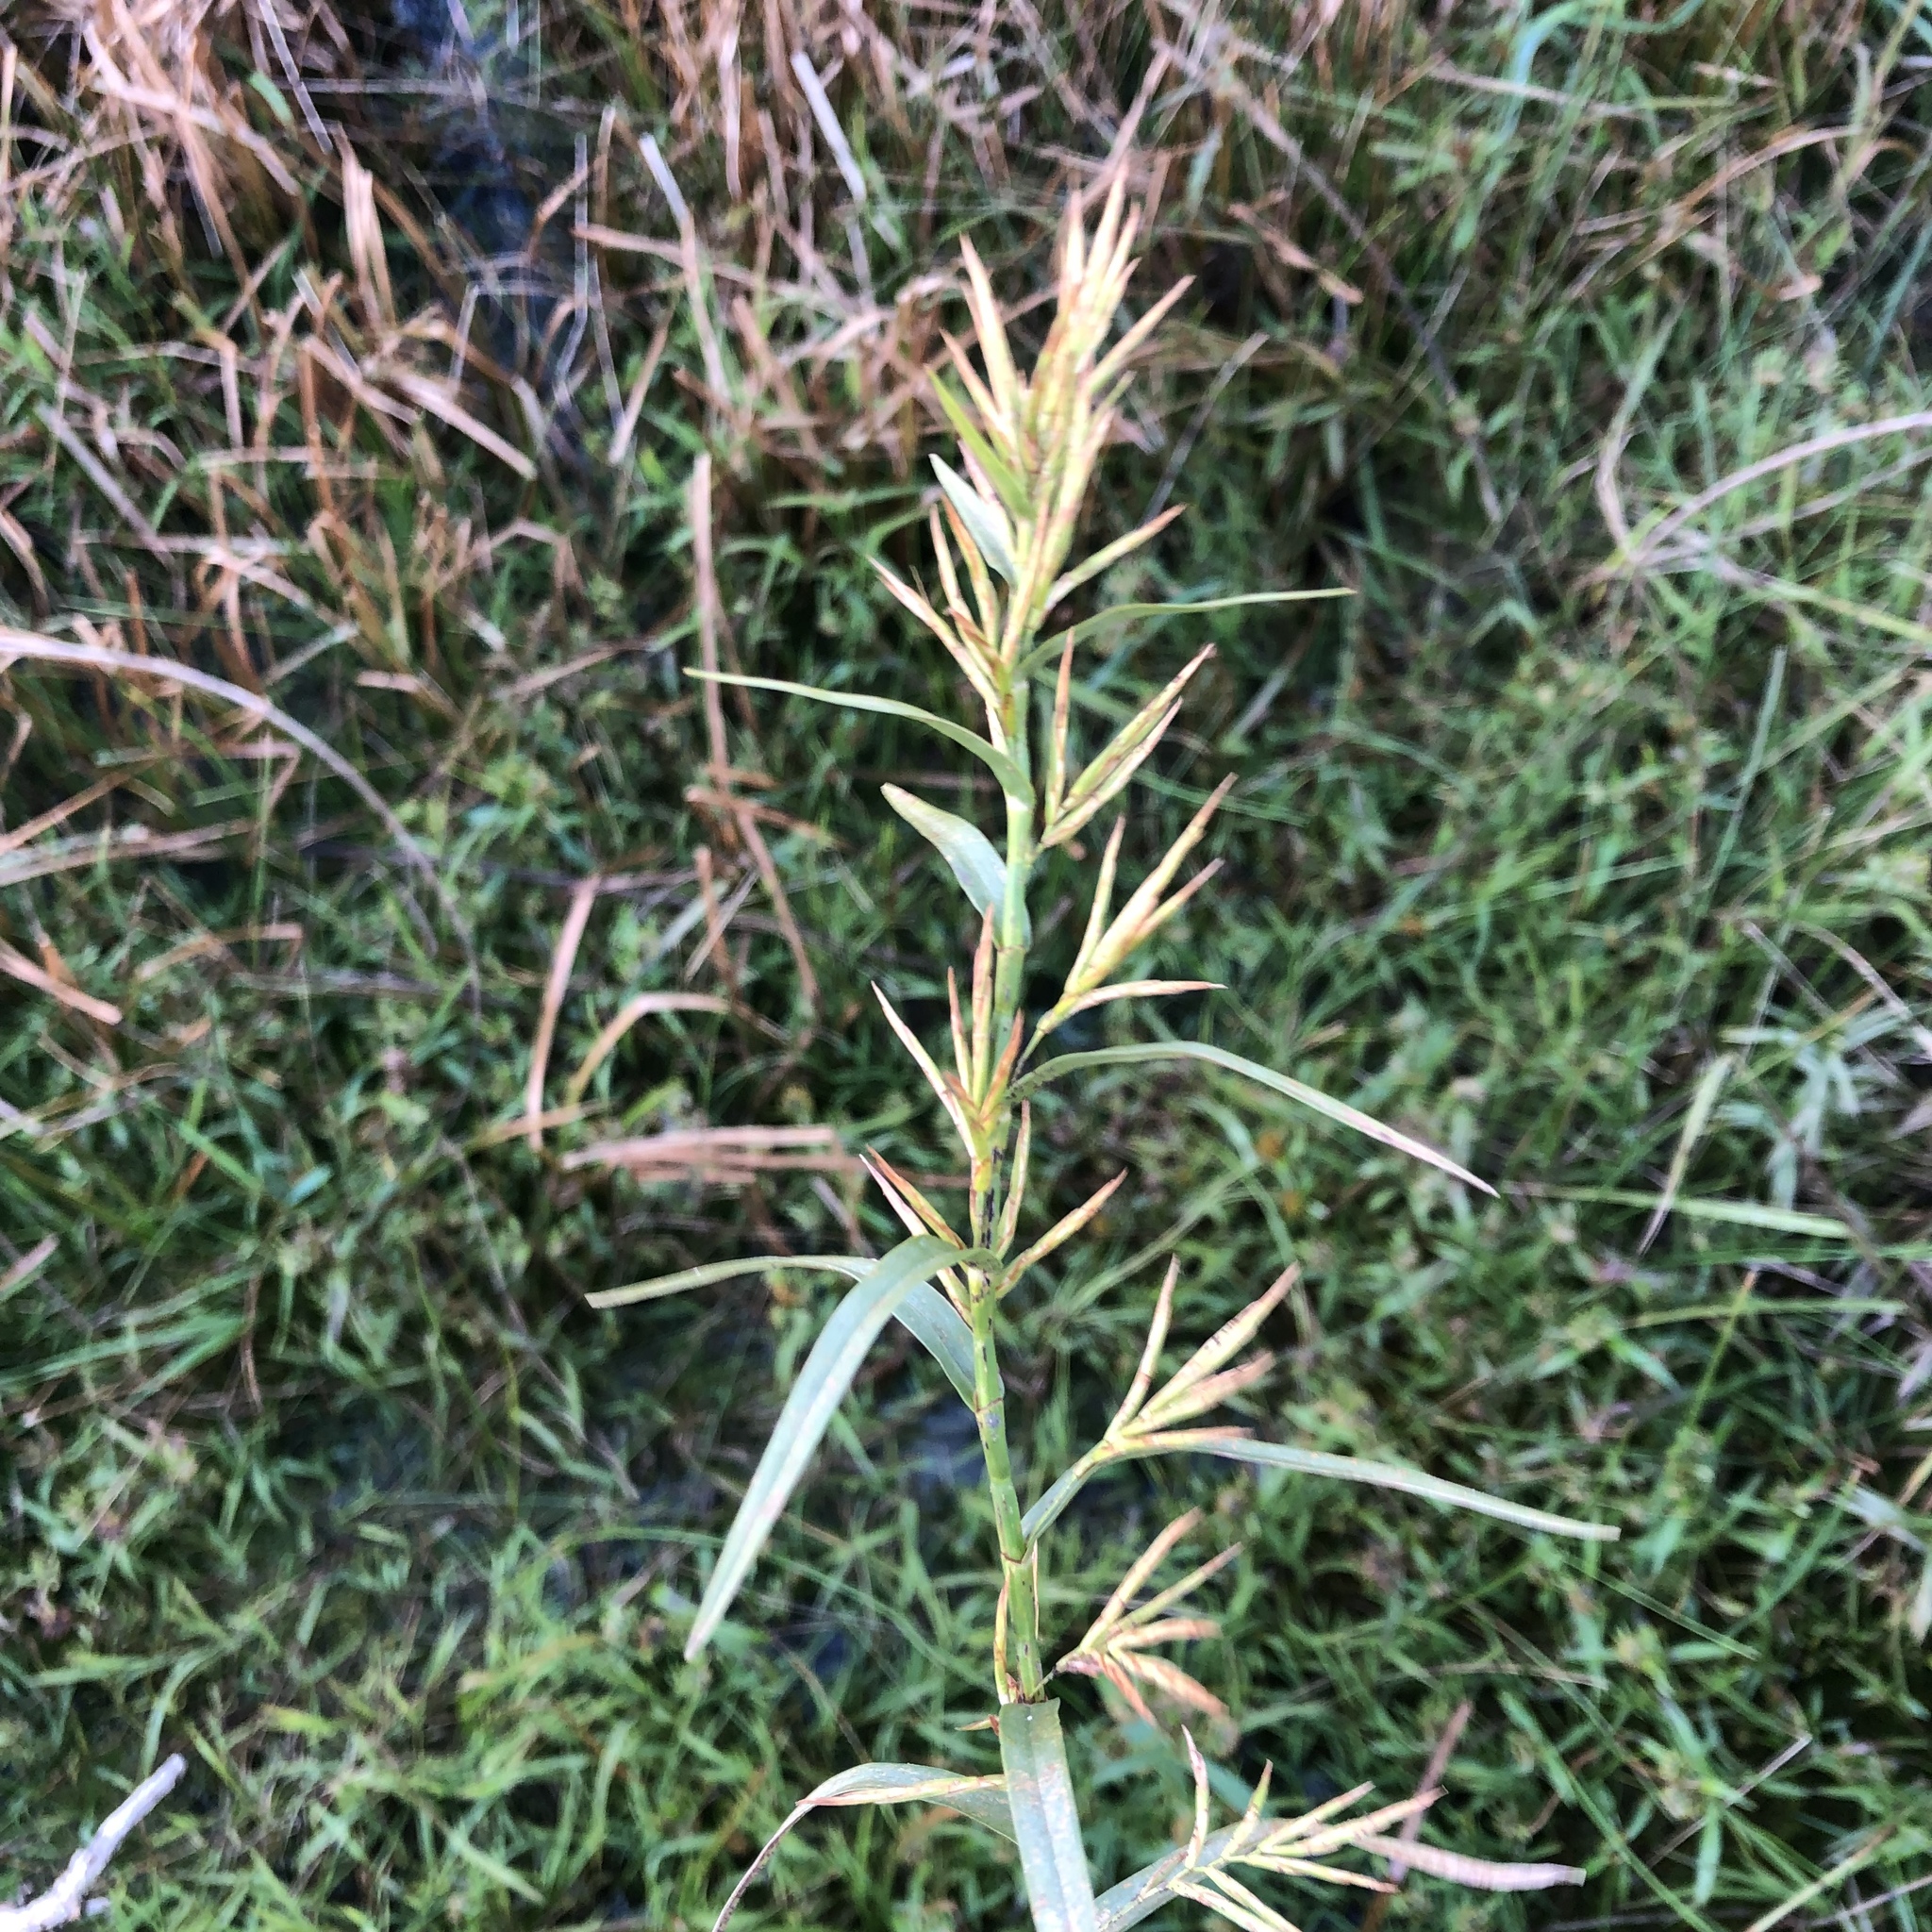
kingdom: Plantae
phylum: Tracheophyta
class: Liliopsida
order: Poales
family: Cyperaceae
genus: Dulichium
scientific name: Dulichium arundinaceum
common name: Three-way sedge
